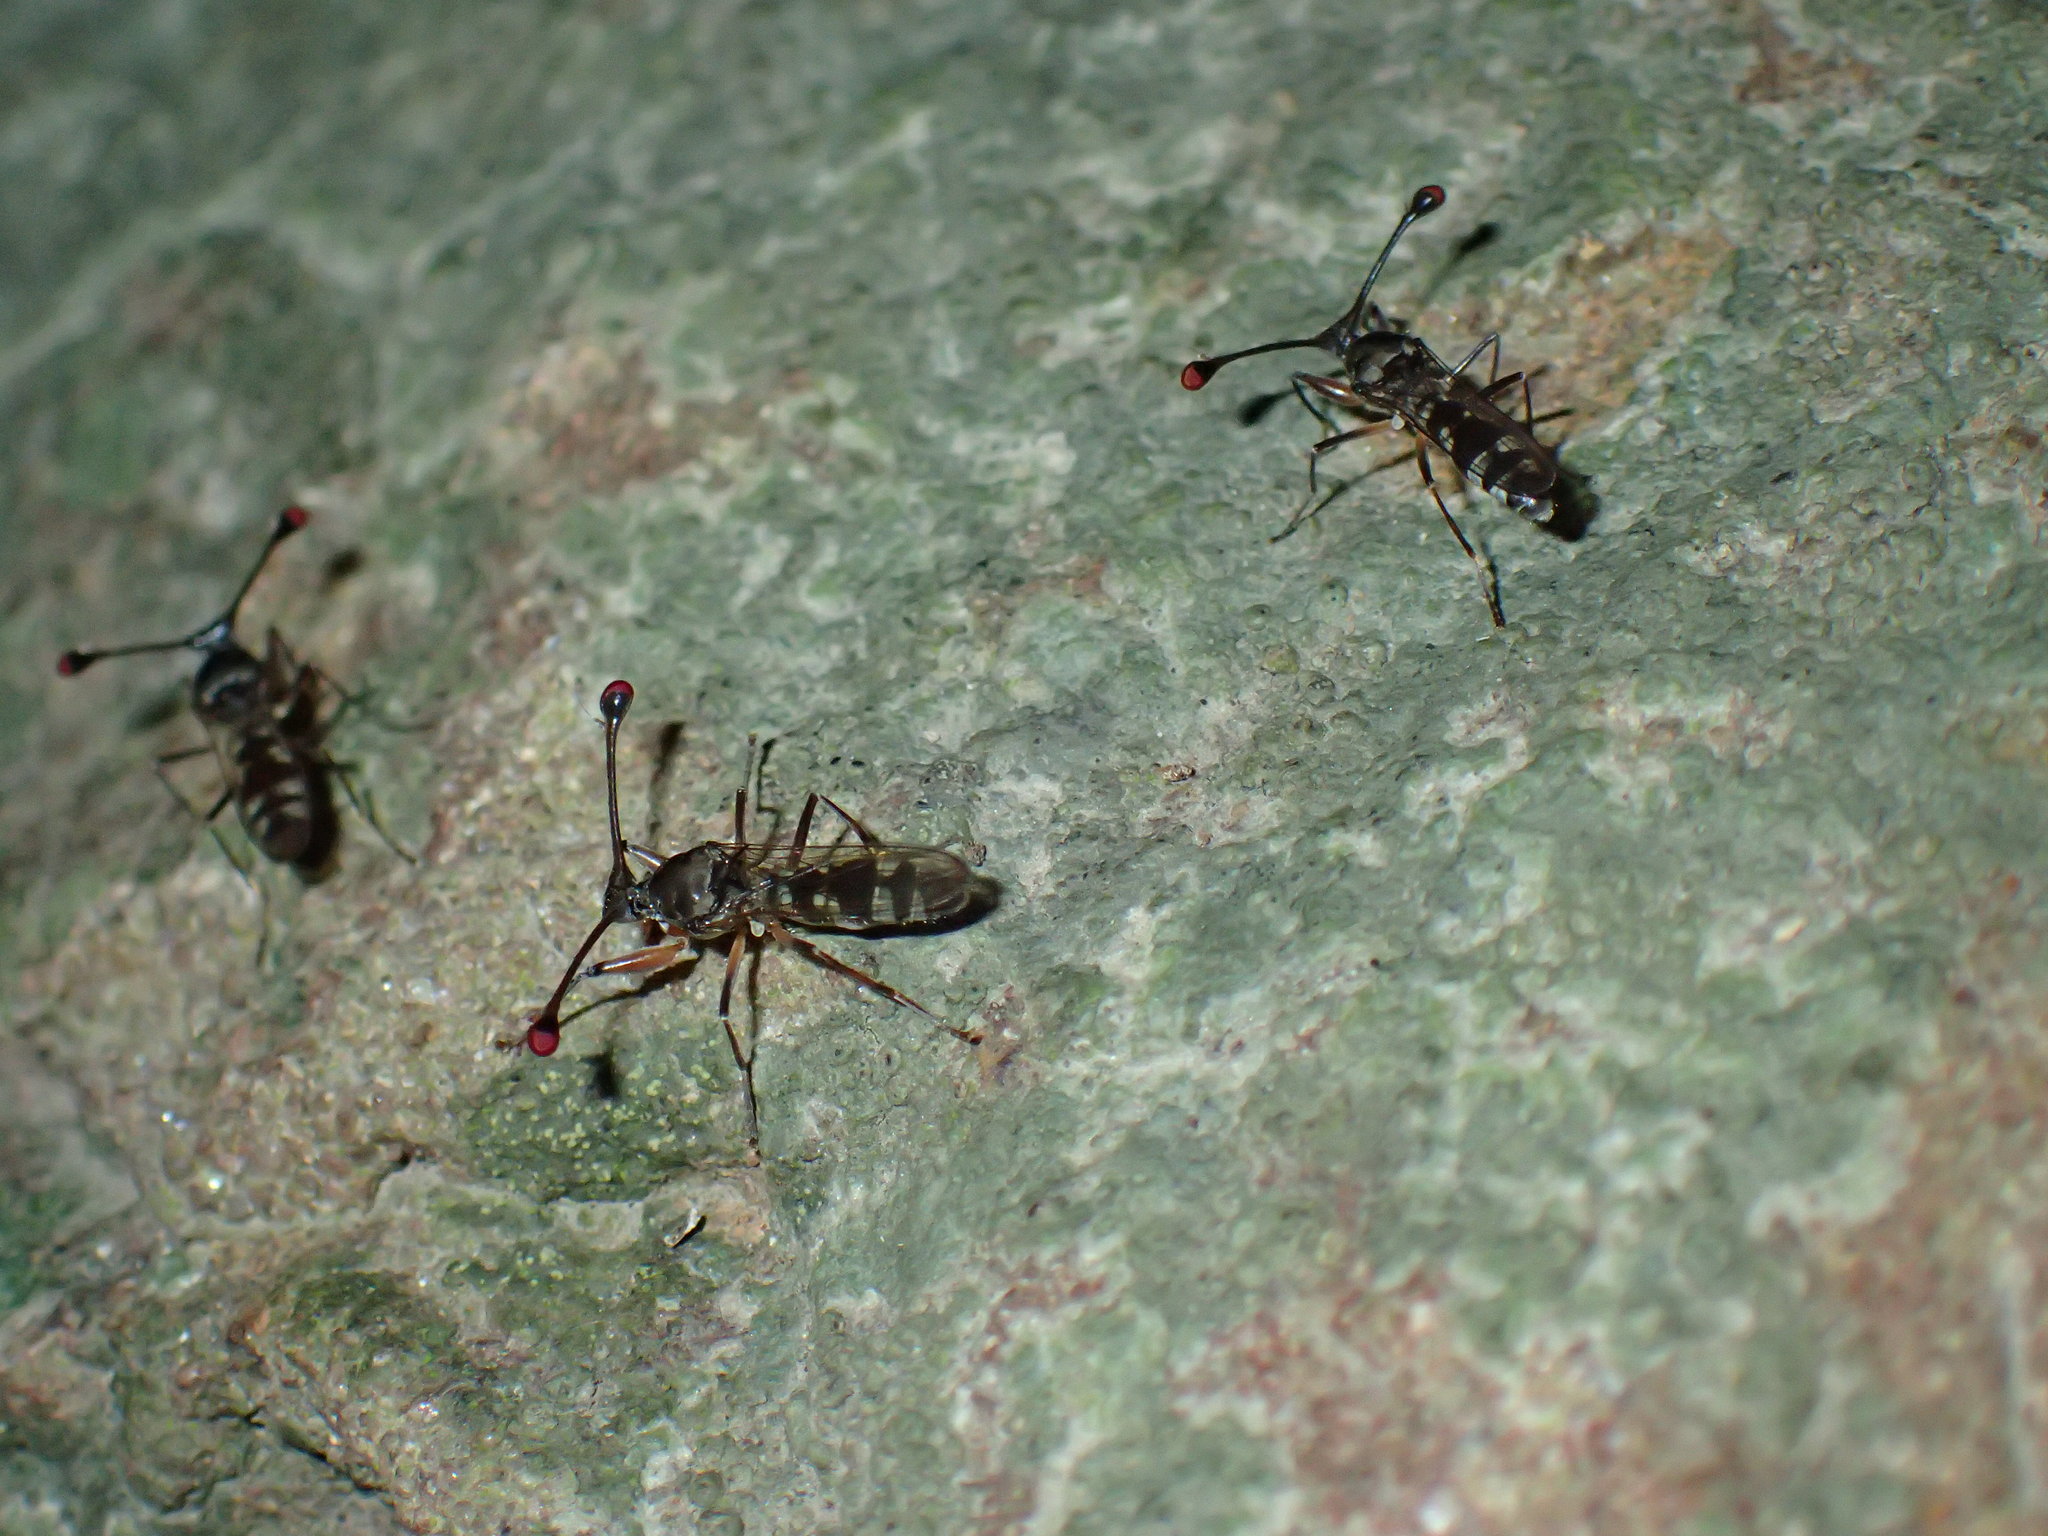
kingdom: Animalia
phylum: Arthropoda
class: Insecta
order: Diptera
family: Diopsidae
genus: Diasemopsis
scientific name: Diasemopsis aethiopica
